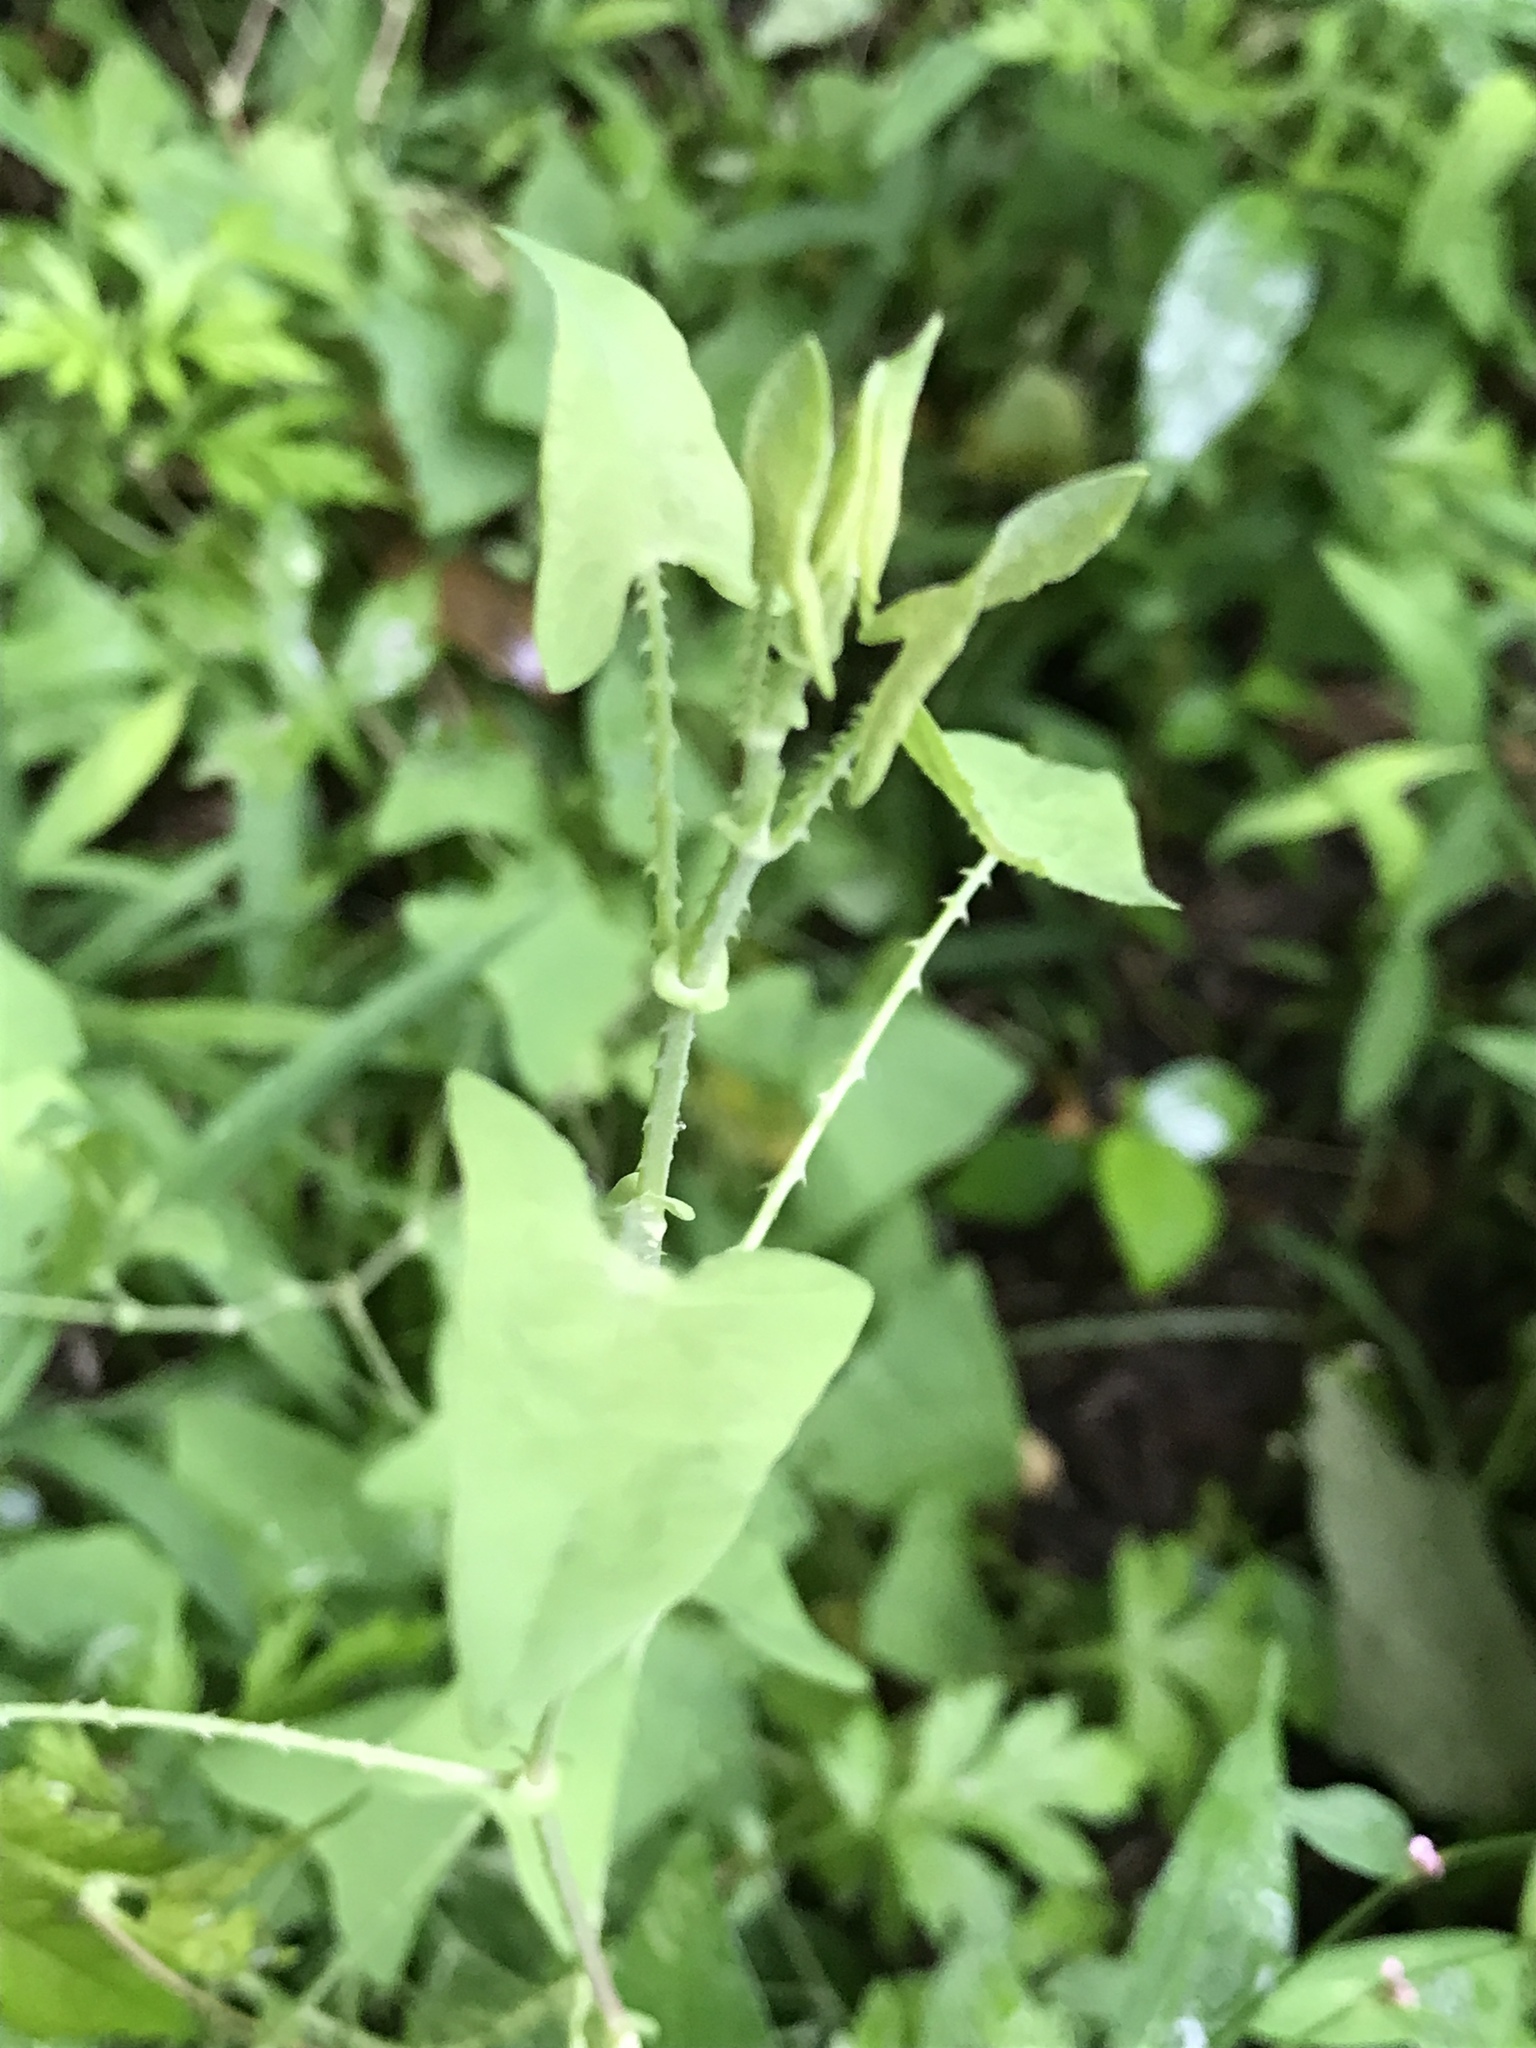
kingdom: Plantae
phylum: Tracheophyta
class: Magnoliopsida
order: Caryophyllales
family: Polygonaceae
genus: Persicaria
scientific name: Persicaria perfoliata
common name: Asiatic tearthumb
